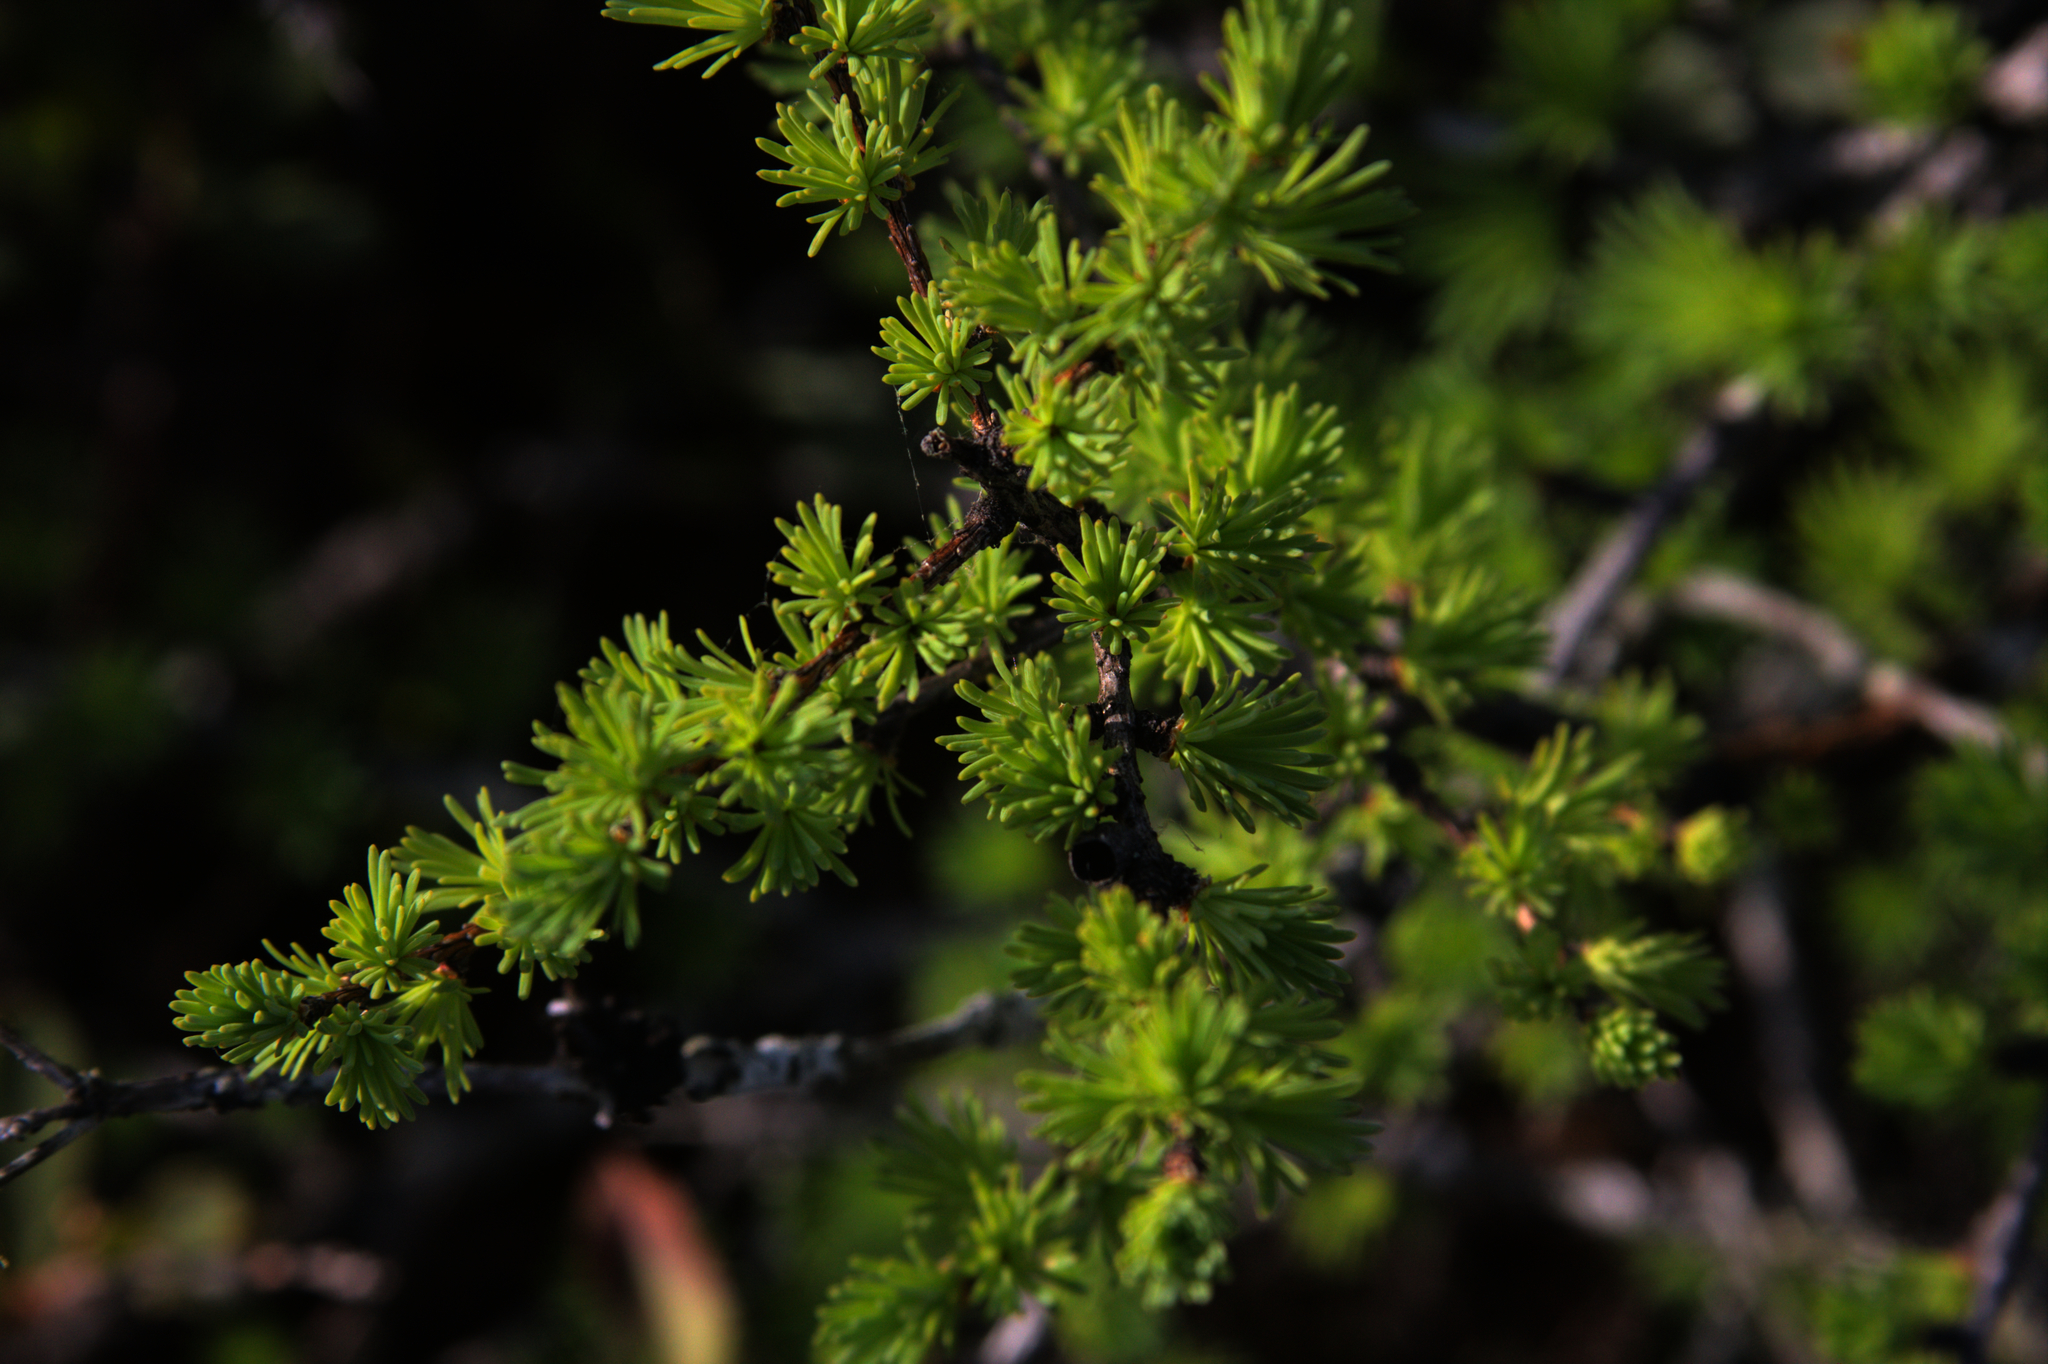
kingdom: Plantae
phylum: Tracheophyta
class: Pinopsida
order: Pinales
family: Pinaceae
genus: Larix
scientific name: Larix laricina
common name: American larch
